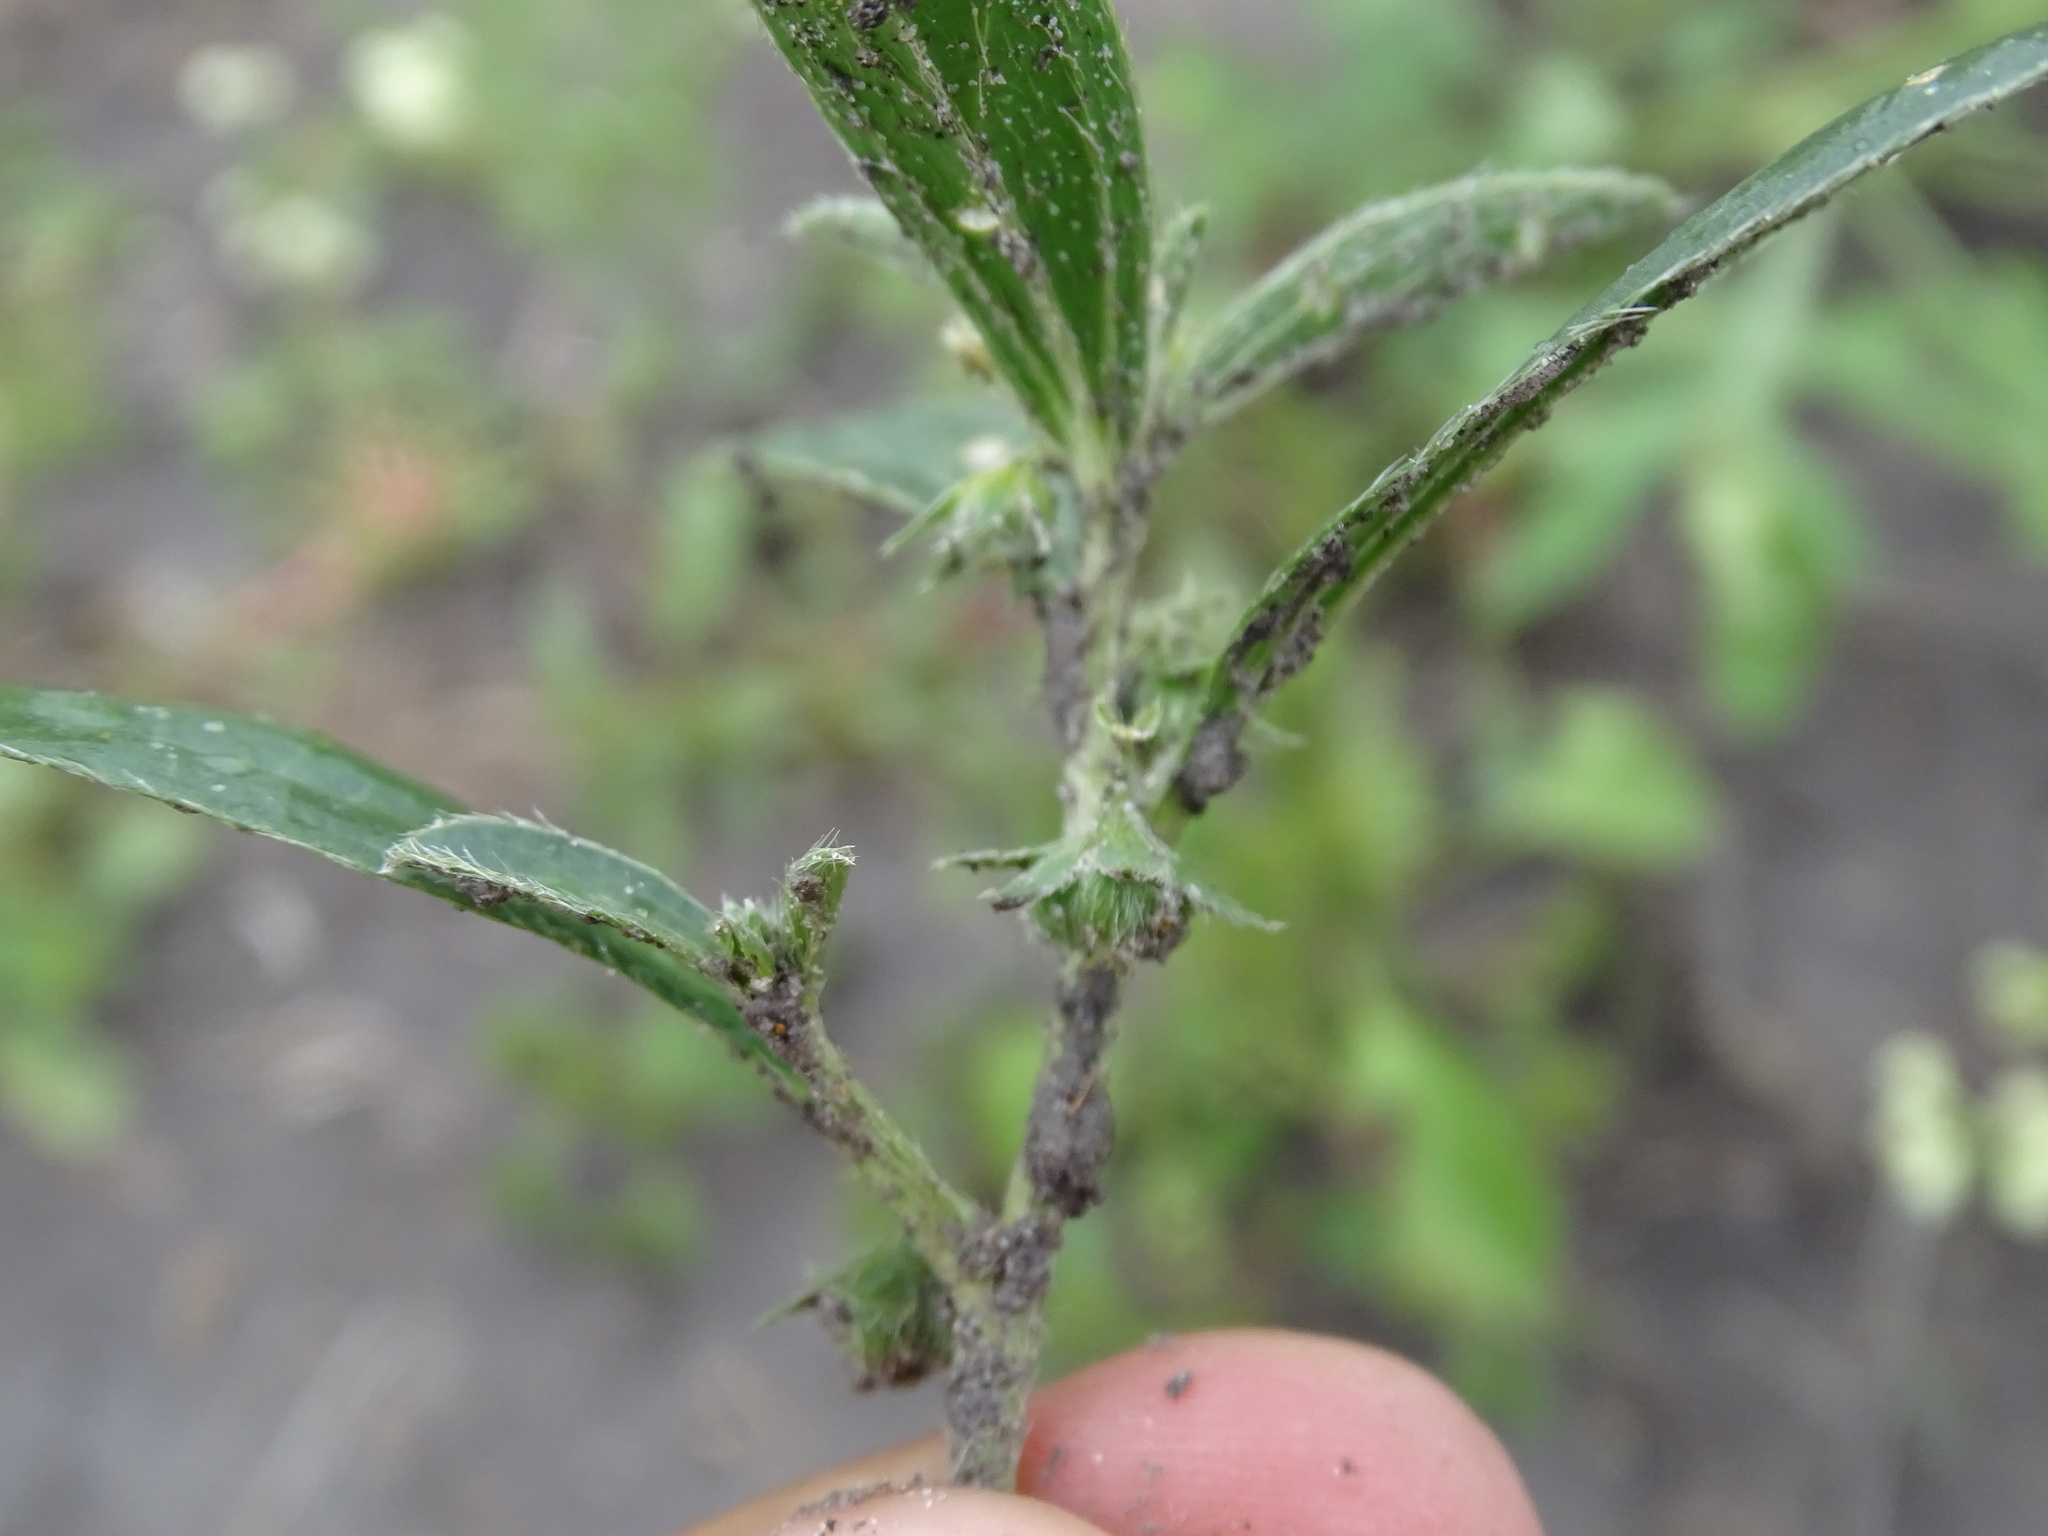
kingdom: Plantae
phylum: Tracheophyta
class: Magnoliopsida
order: Malpighiales
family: Euphorbiaceae
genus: Ditaxis
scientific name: Ditaxis humilis
